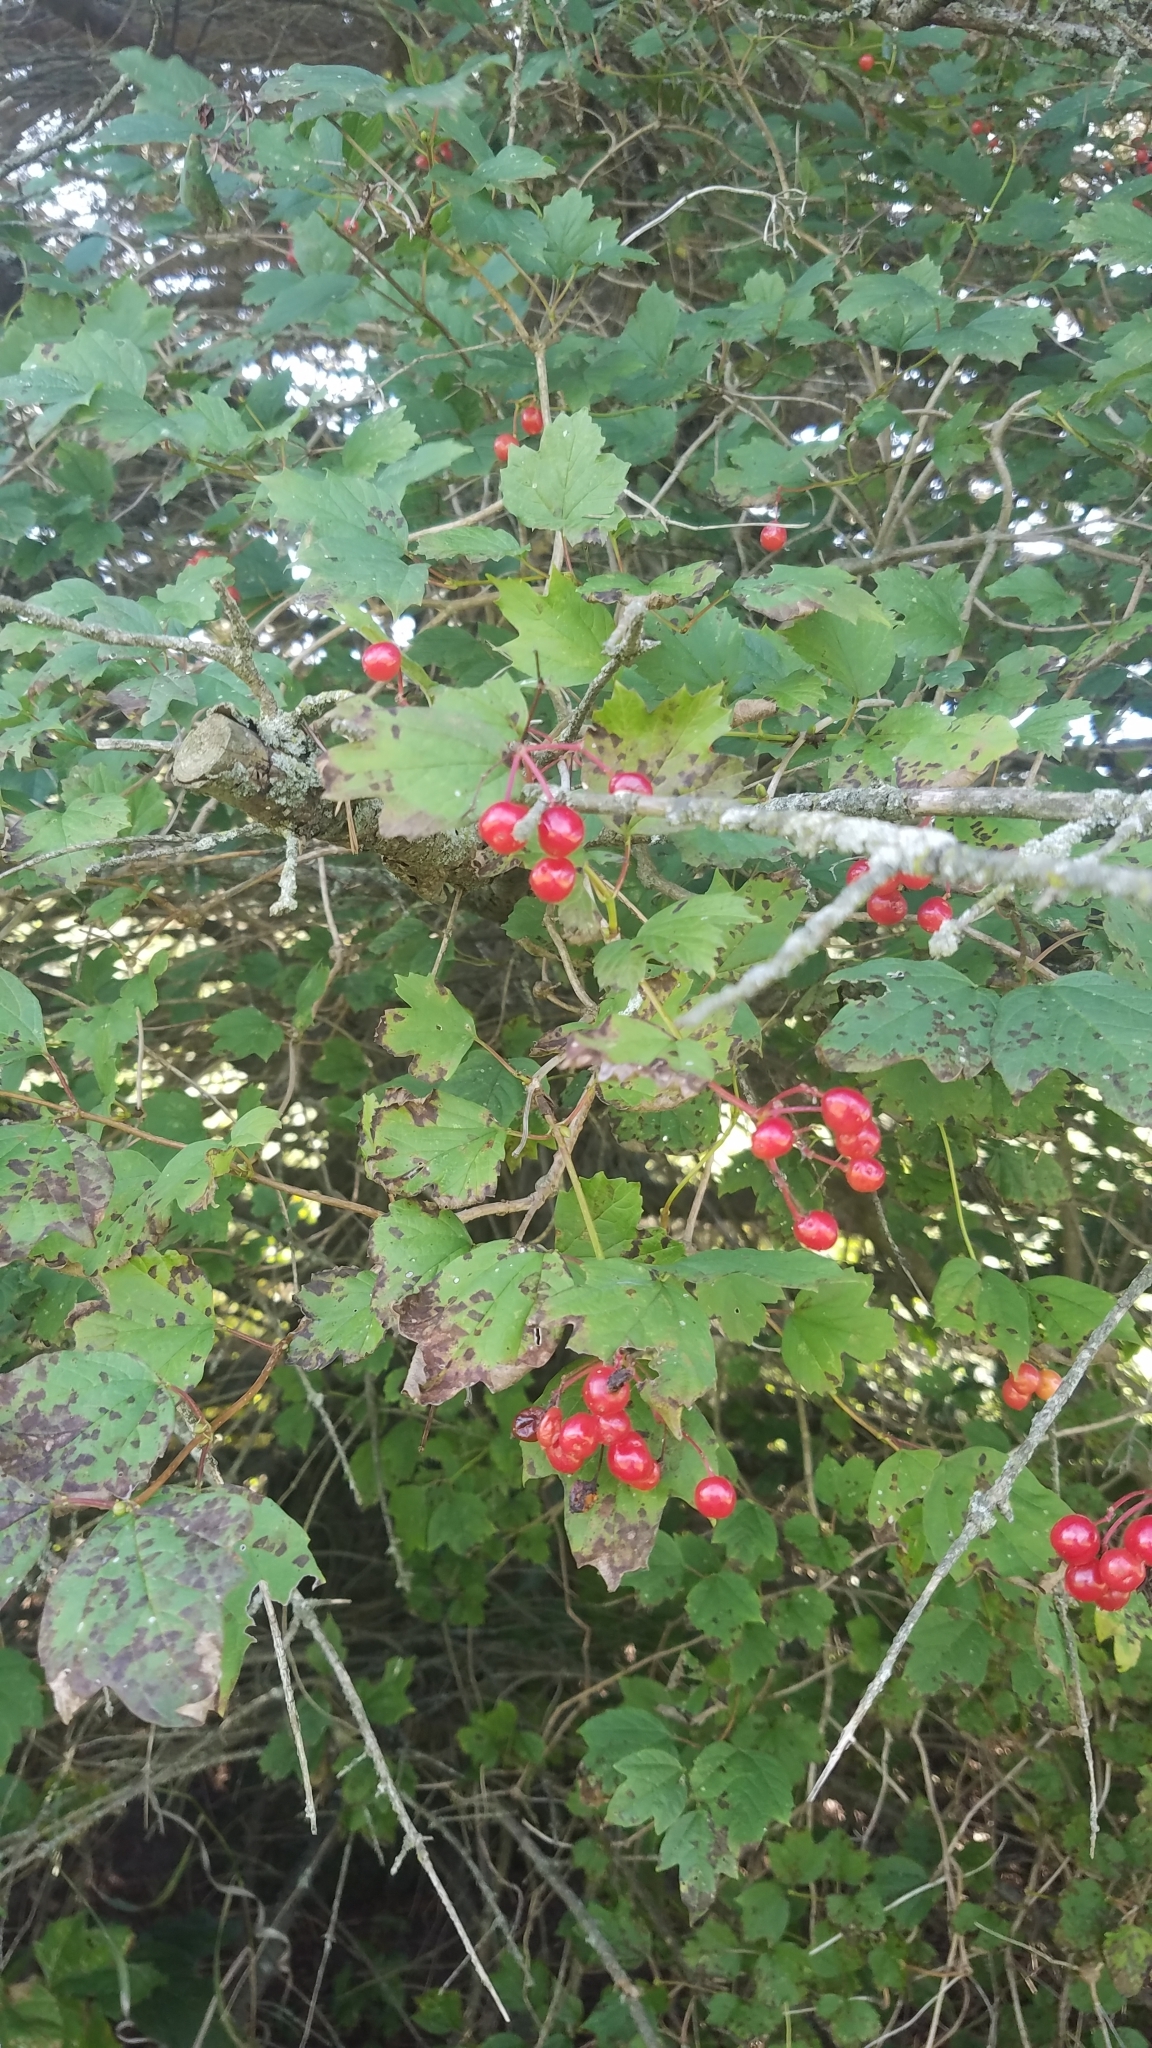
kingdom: Plantae
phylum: Tracheophyta
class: Magnoliopsida
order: Dipsacales
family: Viburnaceae
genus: Viburnum
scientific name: Viburnum opulus
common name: Guelder-rose
